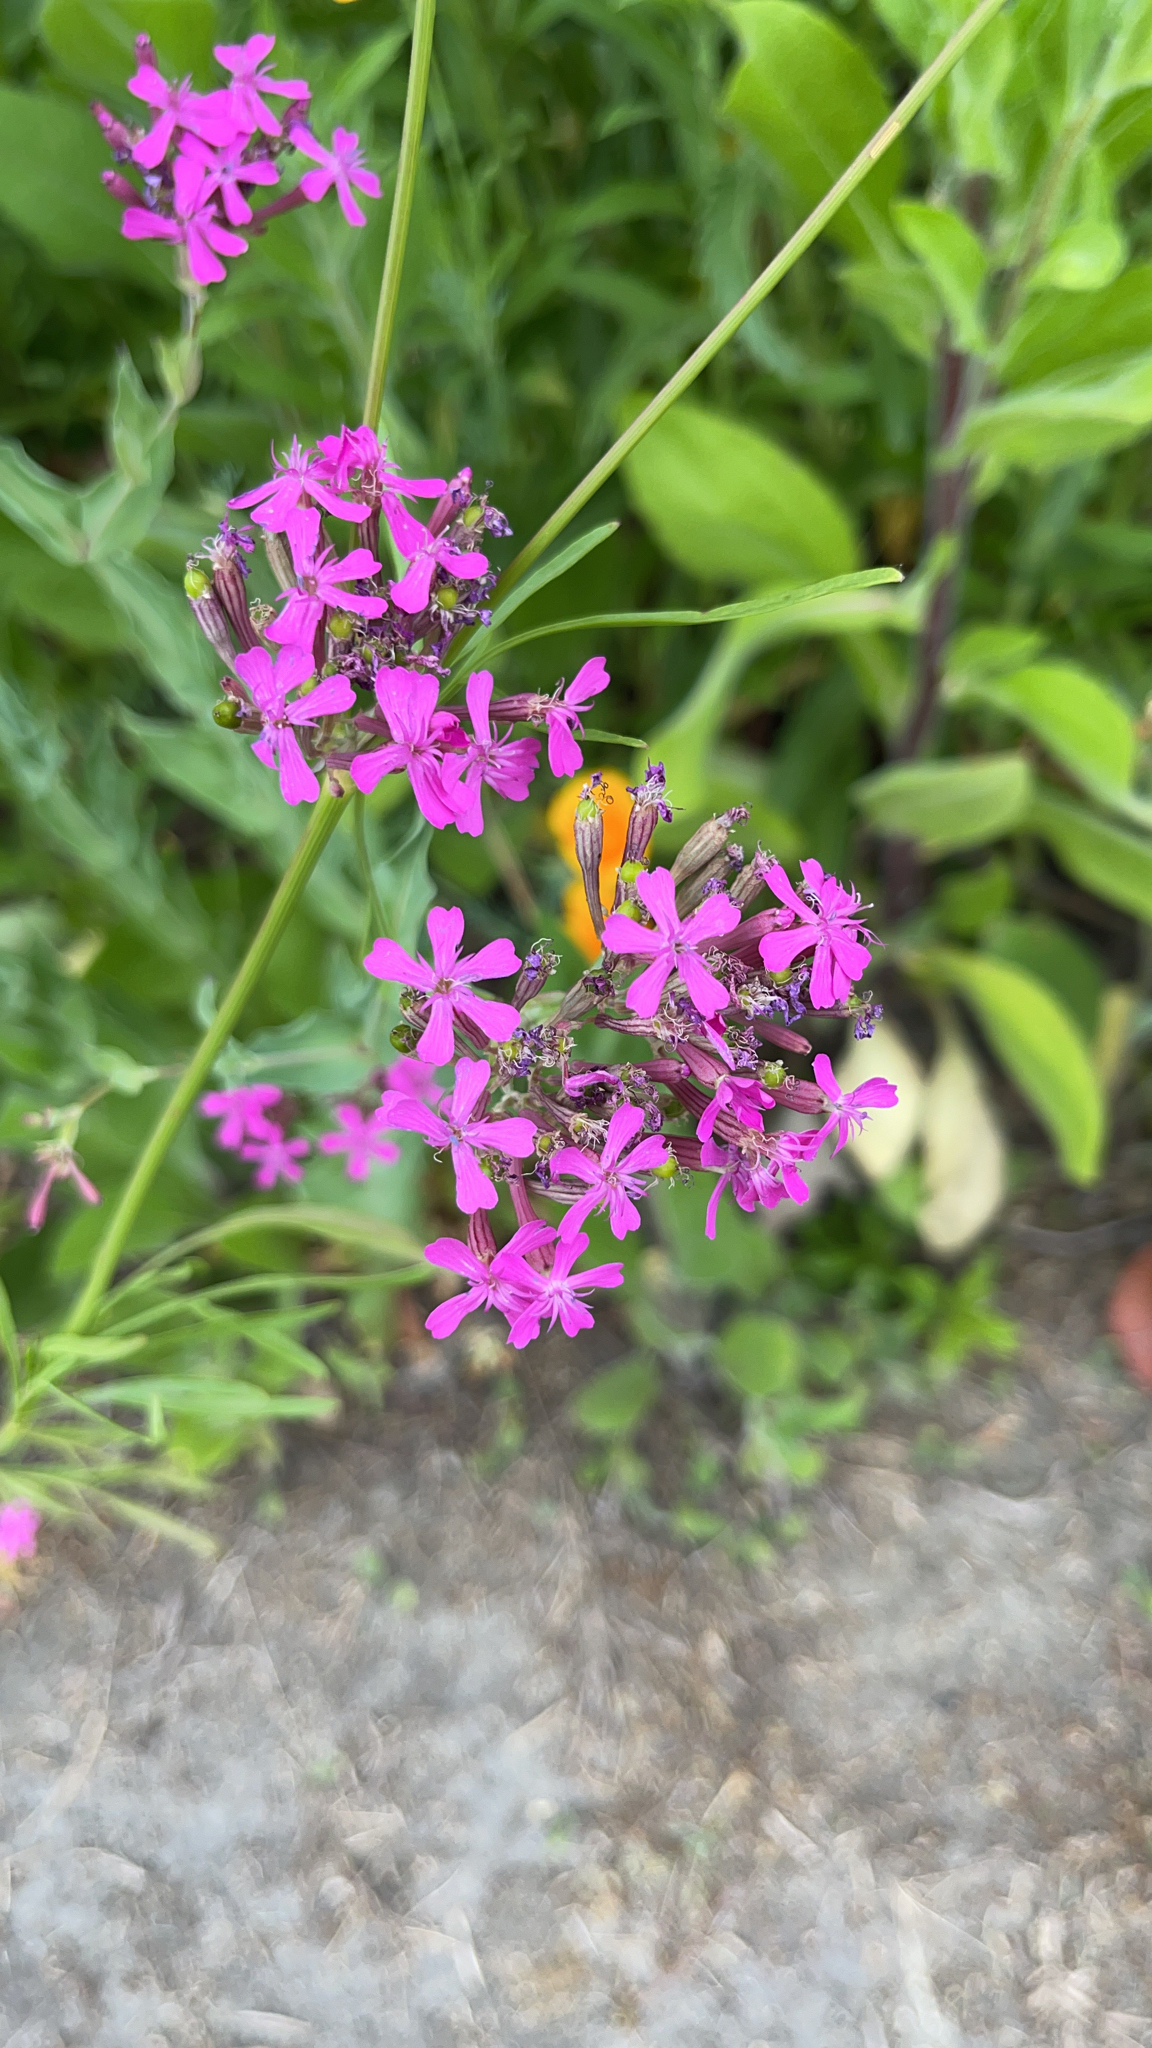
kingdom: Plantae
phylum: Tracheophyta
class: Magnoliopsida
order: Caryophyllales
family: Caryophyllaceae
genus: Atocion
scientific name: Atocion armeria
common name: Sweet william catchfly
